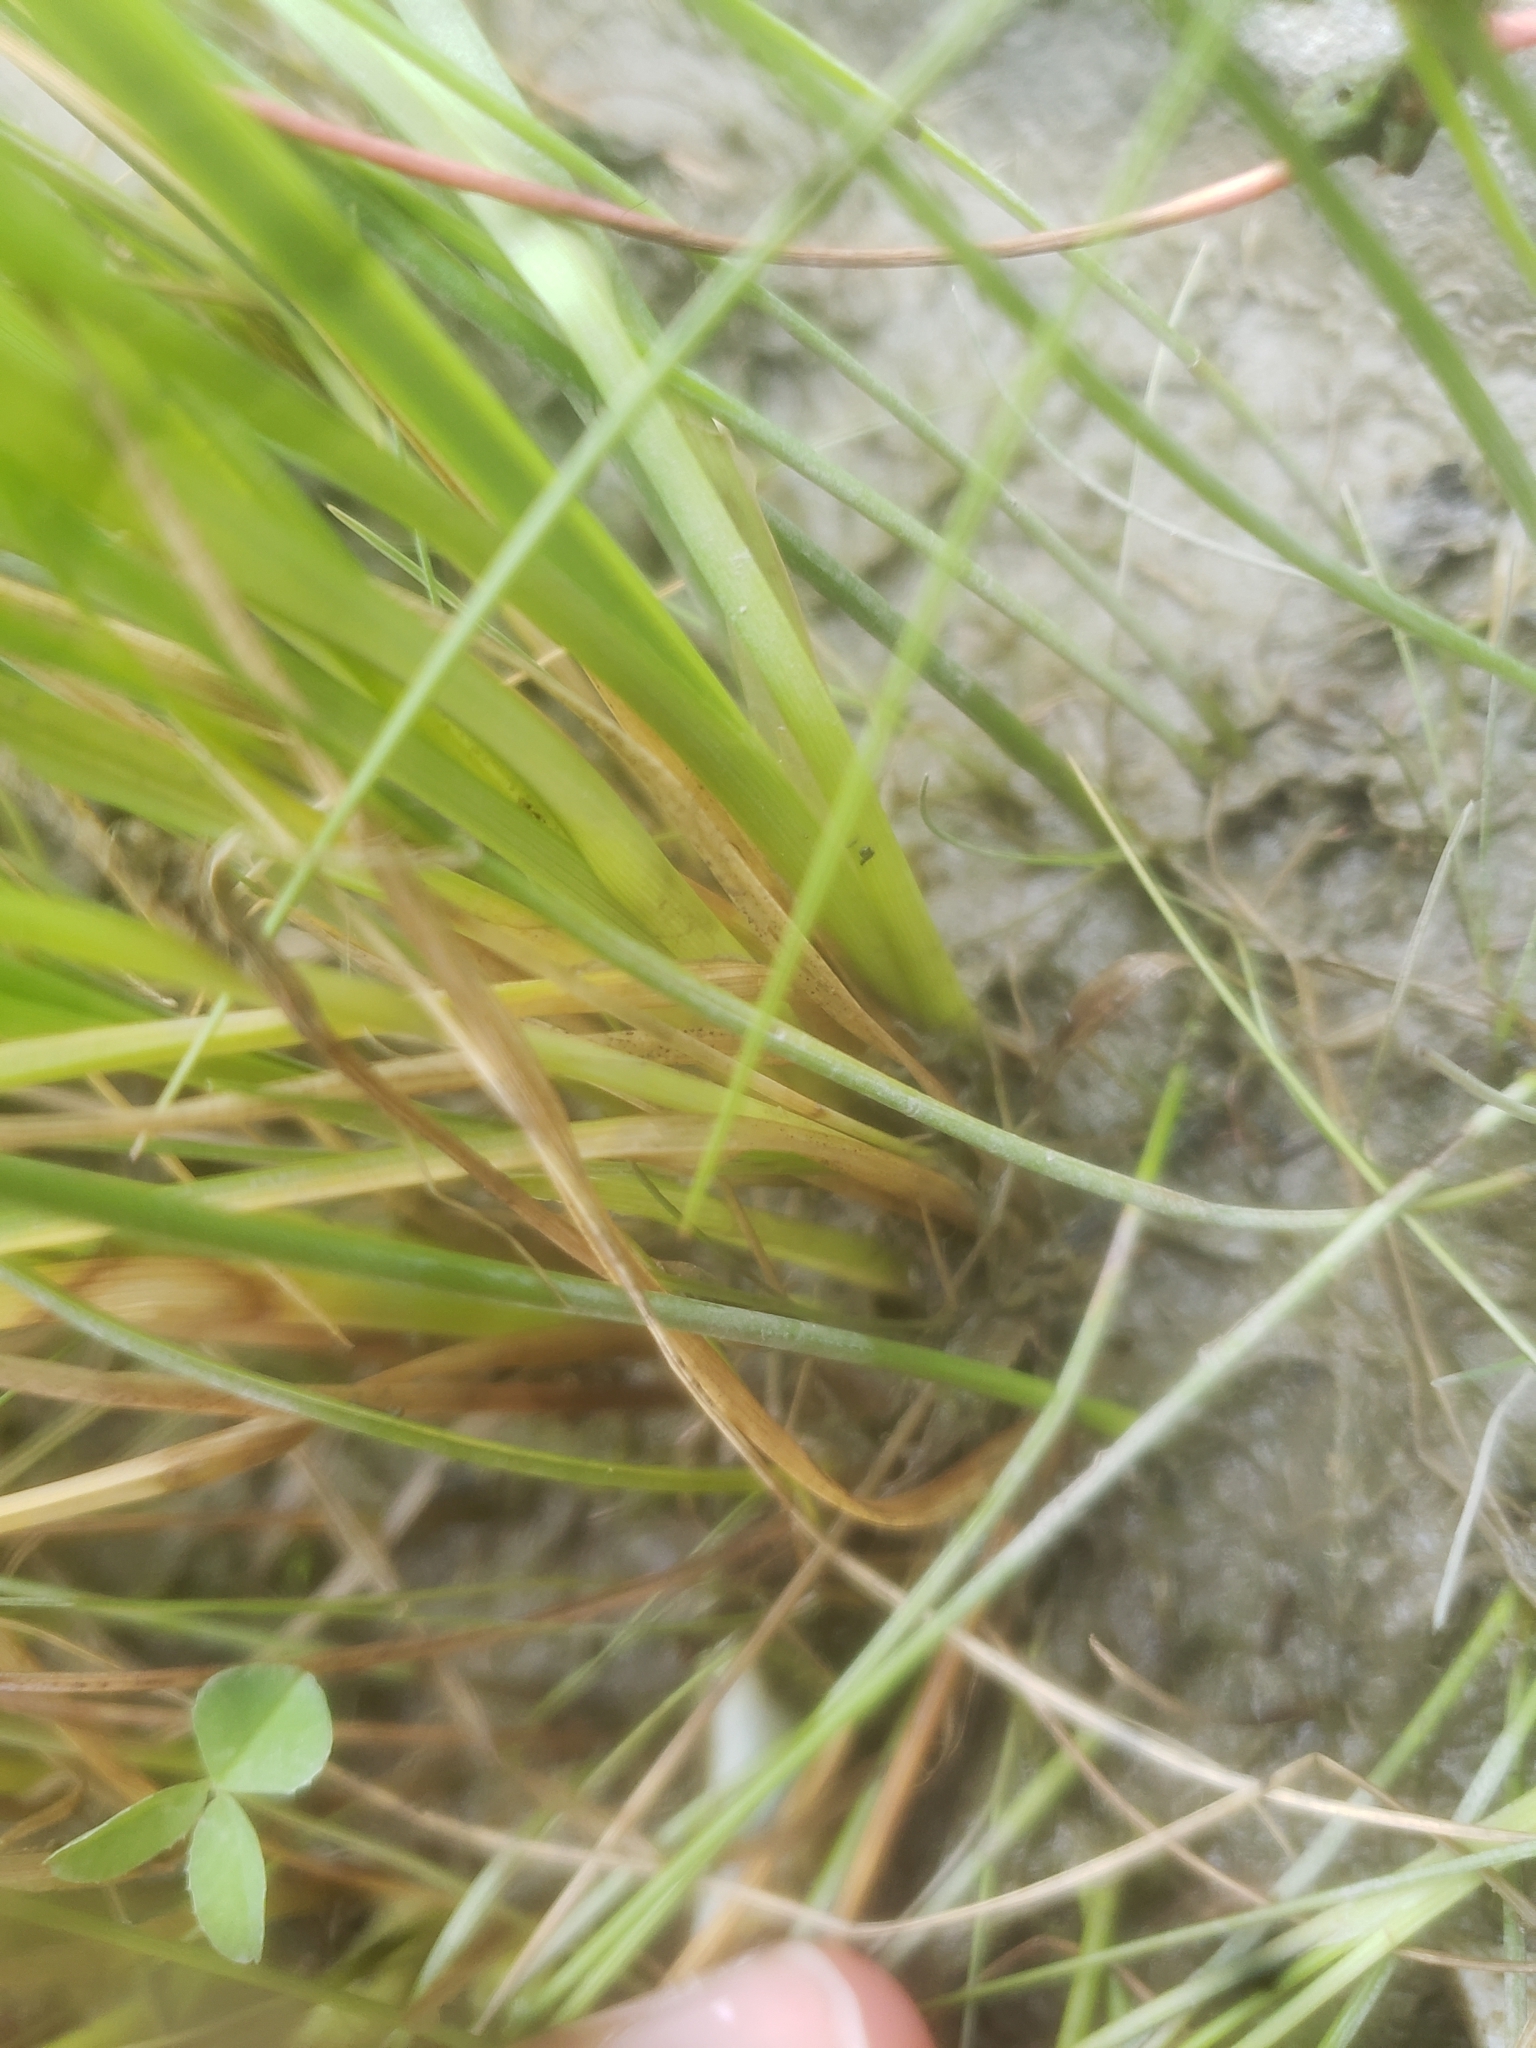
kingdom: Plantae
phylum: Tracheophyta
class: Liliopsida
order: Poales
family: Cyperaceae
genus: Carex
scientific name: Carex
